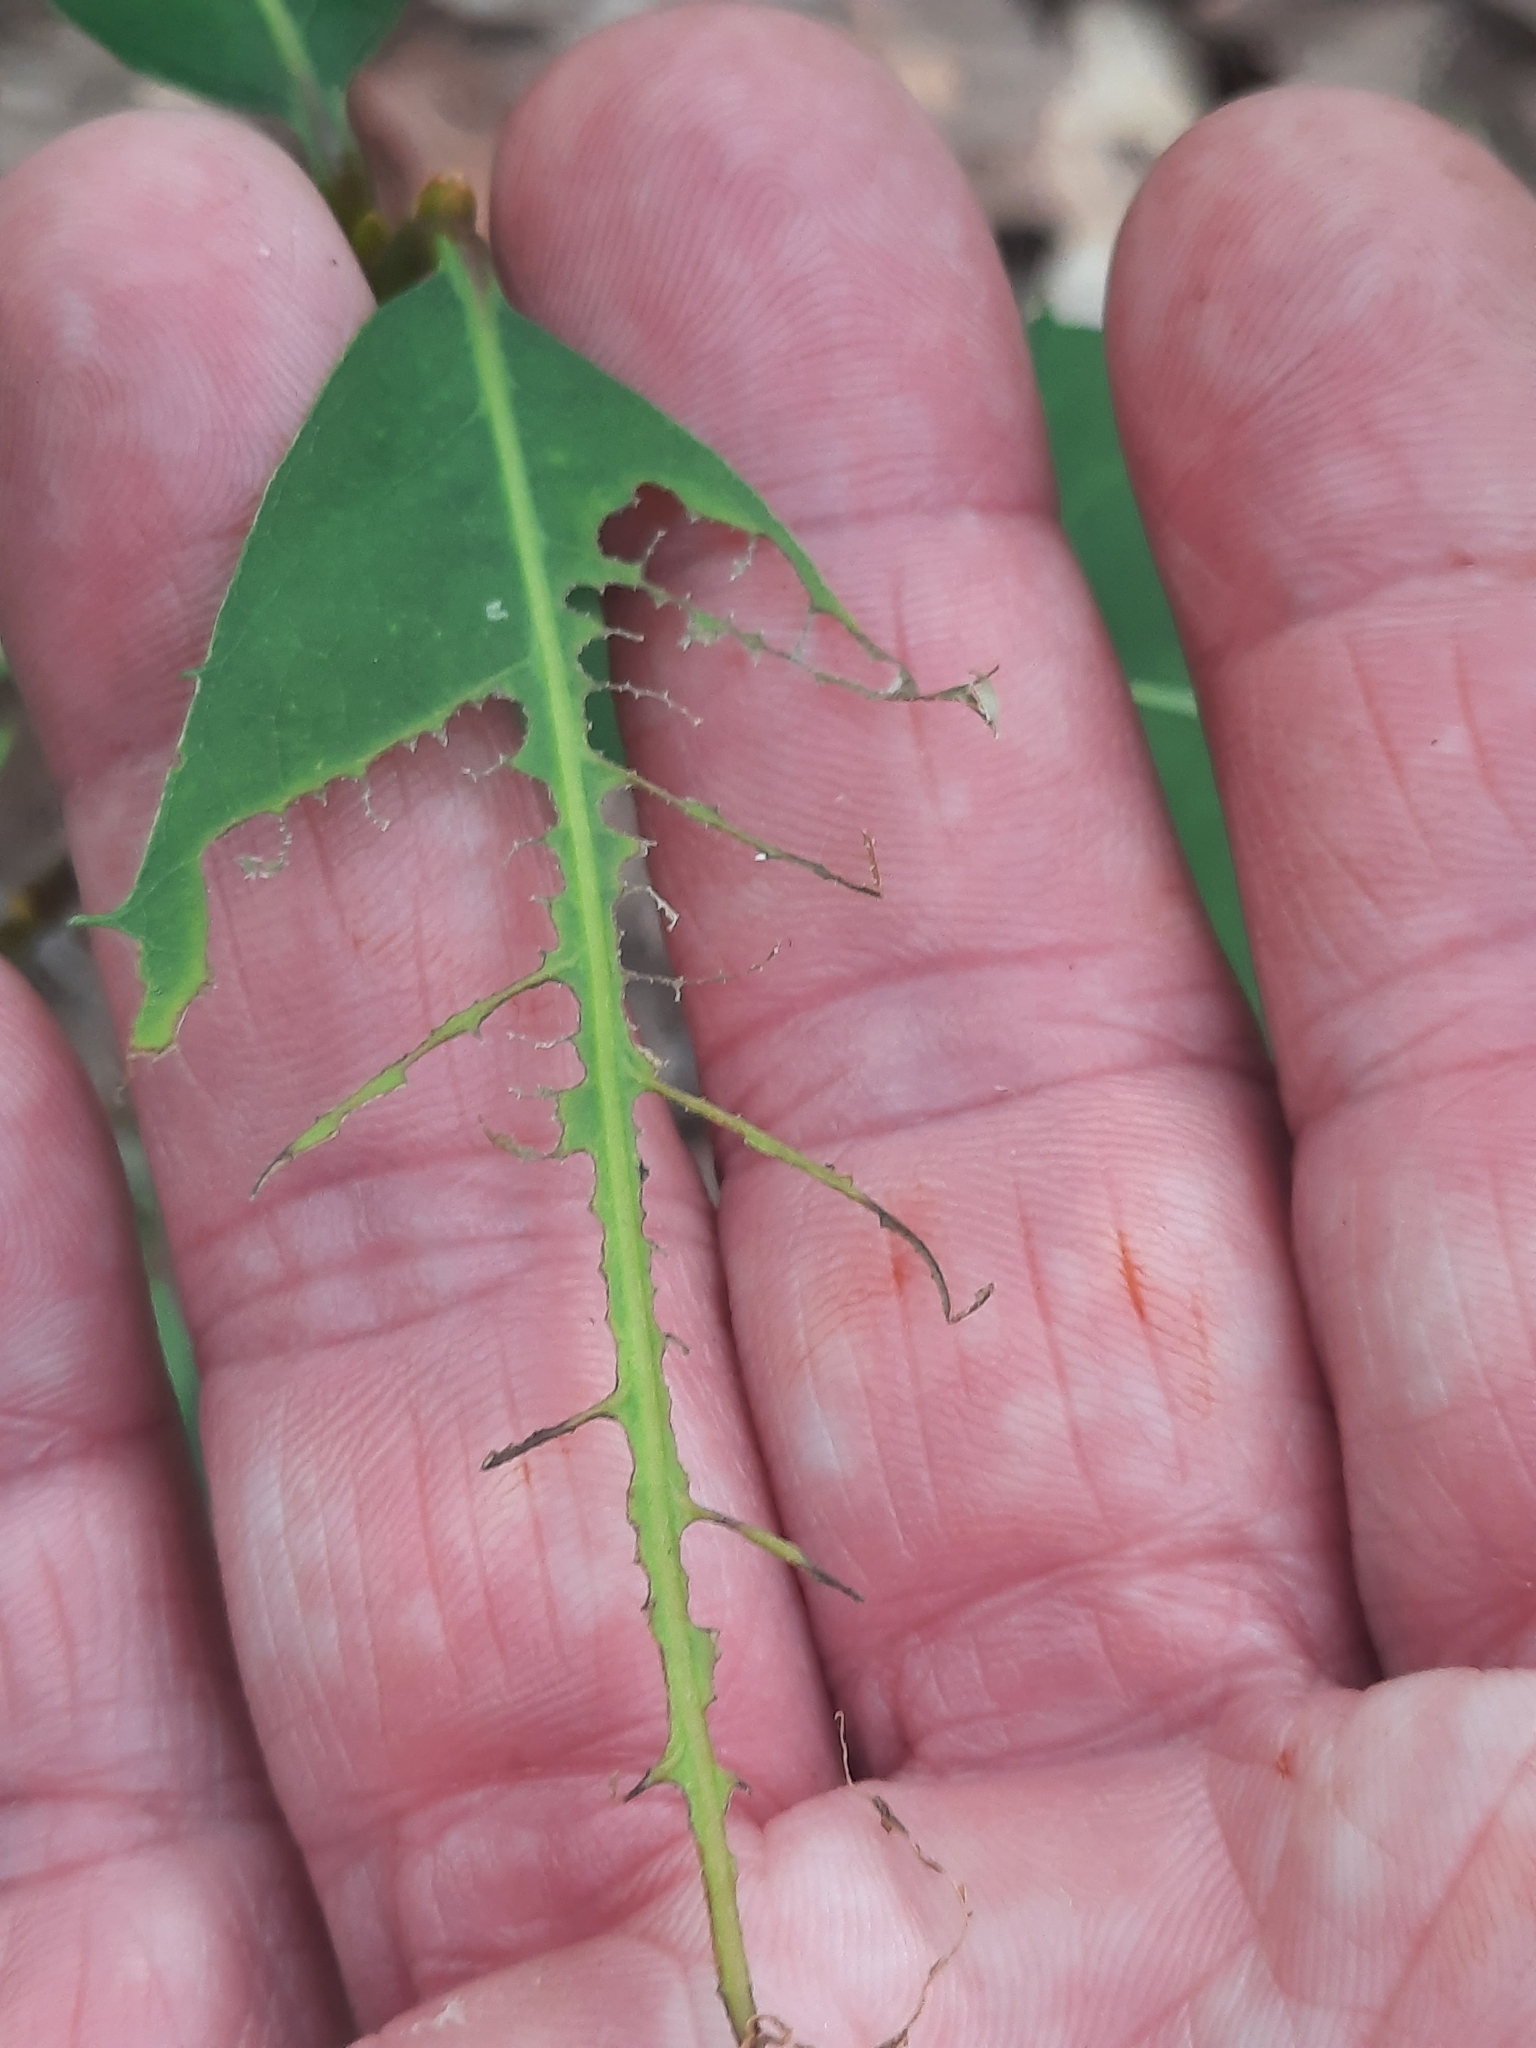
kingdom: Plantae
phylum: Tracheophyta
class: Magnoliopsida
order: Fagales
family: Fagaceae
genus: Castanea
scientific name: Castanea dentata
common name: American chestnut
